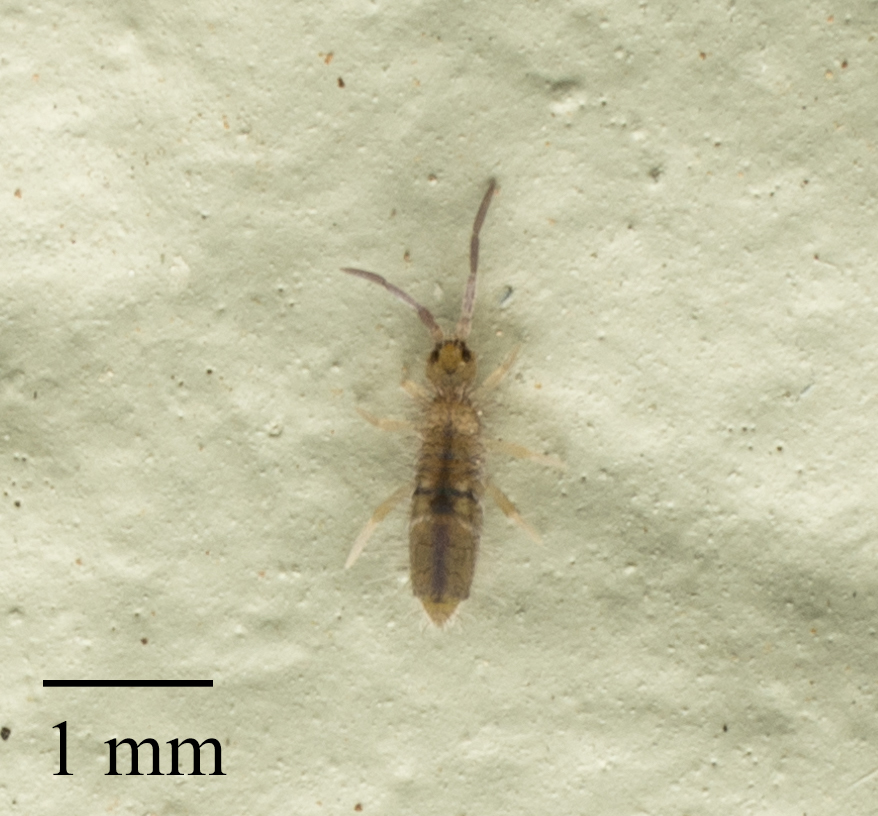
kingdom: Animalia
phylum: Arthropoda
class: Collembola
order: Entomobryomorpha
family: Entomobryidae
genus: Entomobrya
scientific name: Entomobrya unostrigata
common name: Springtail
